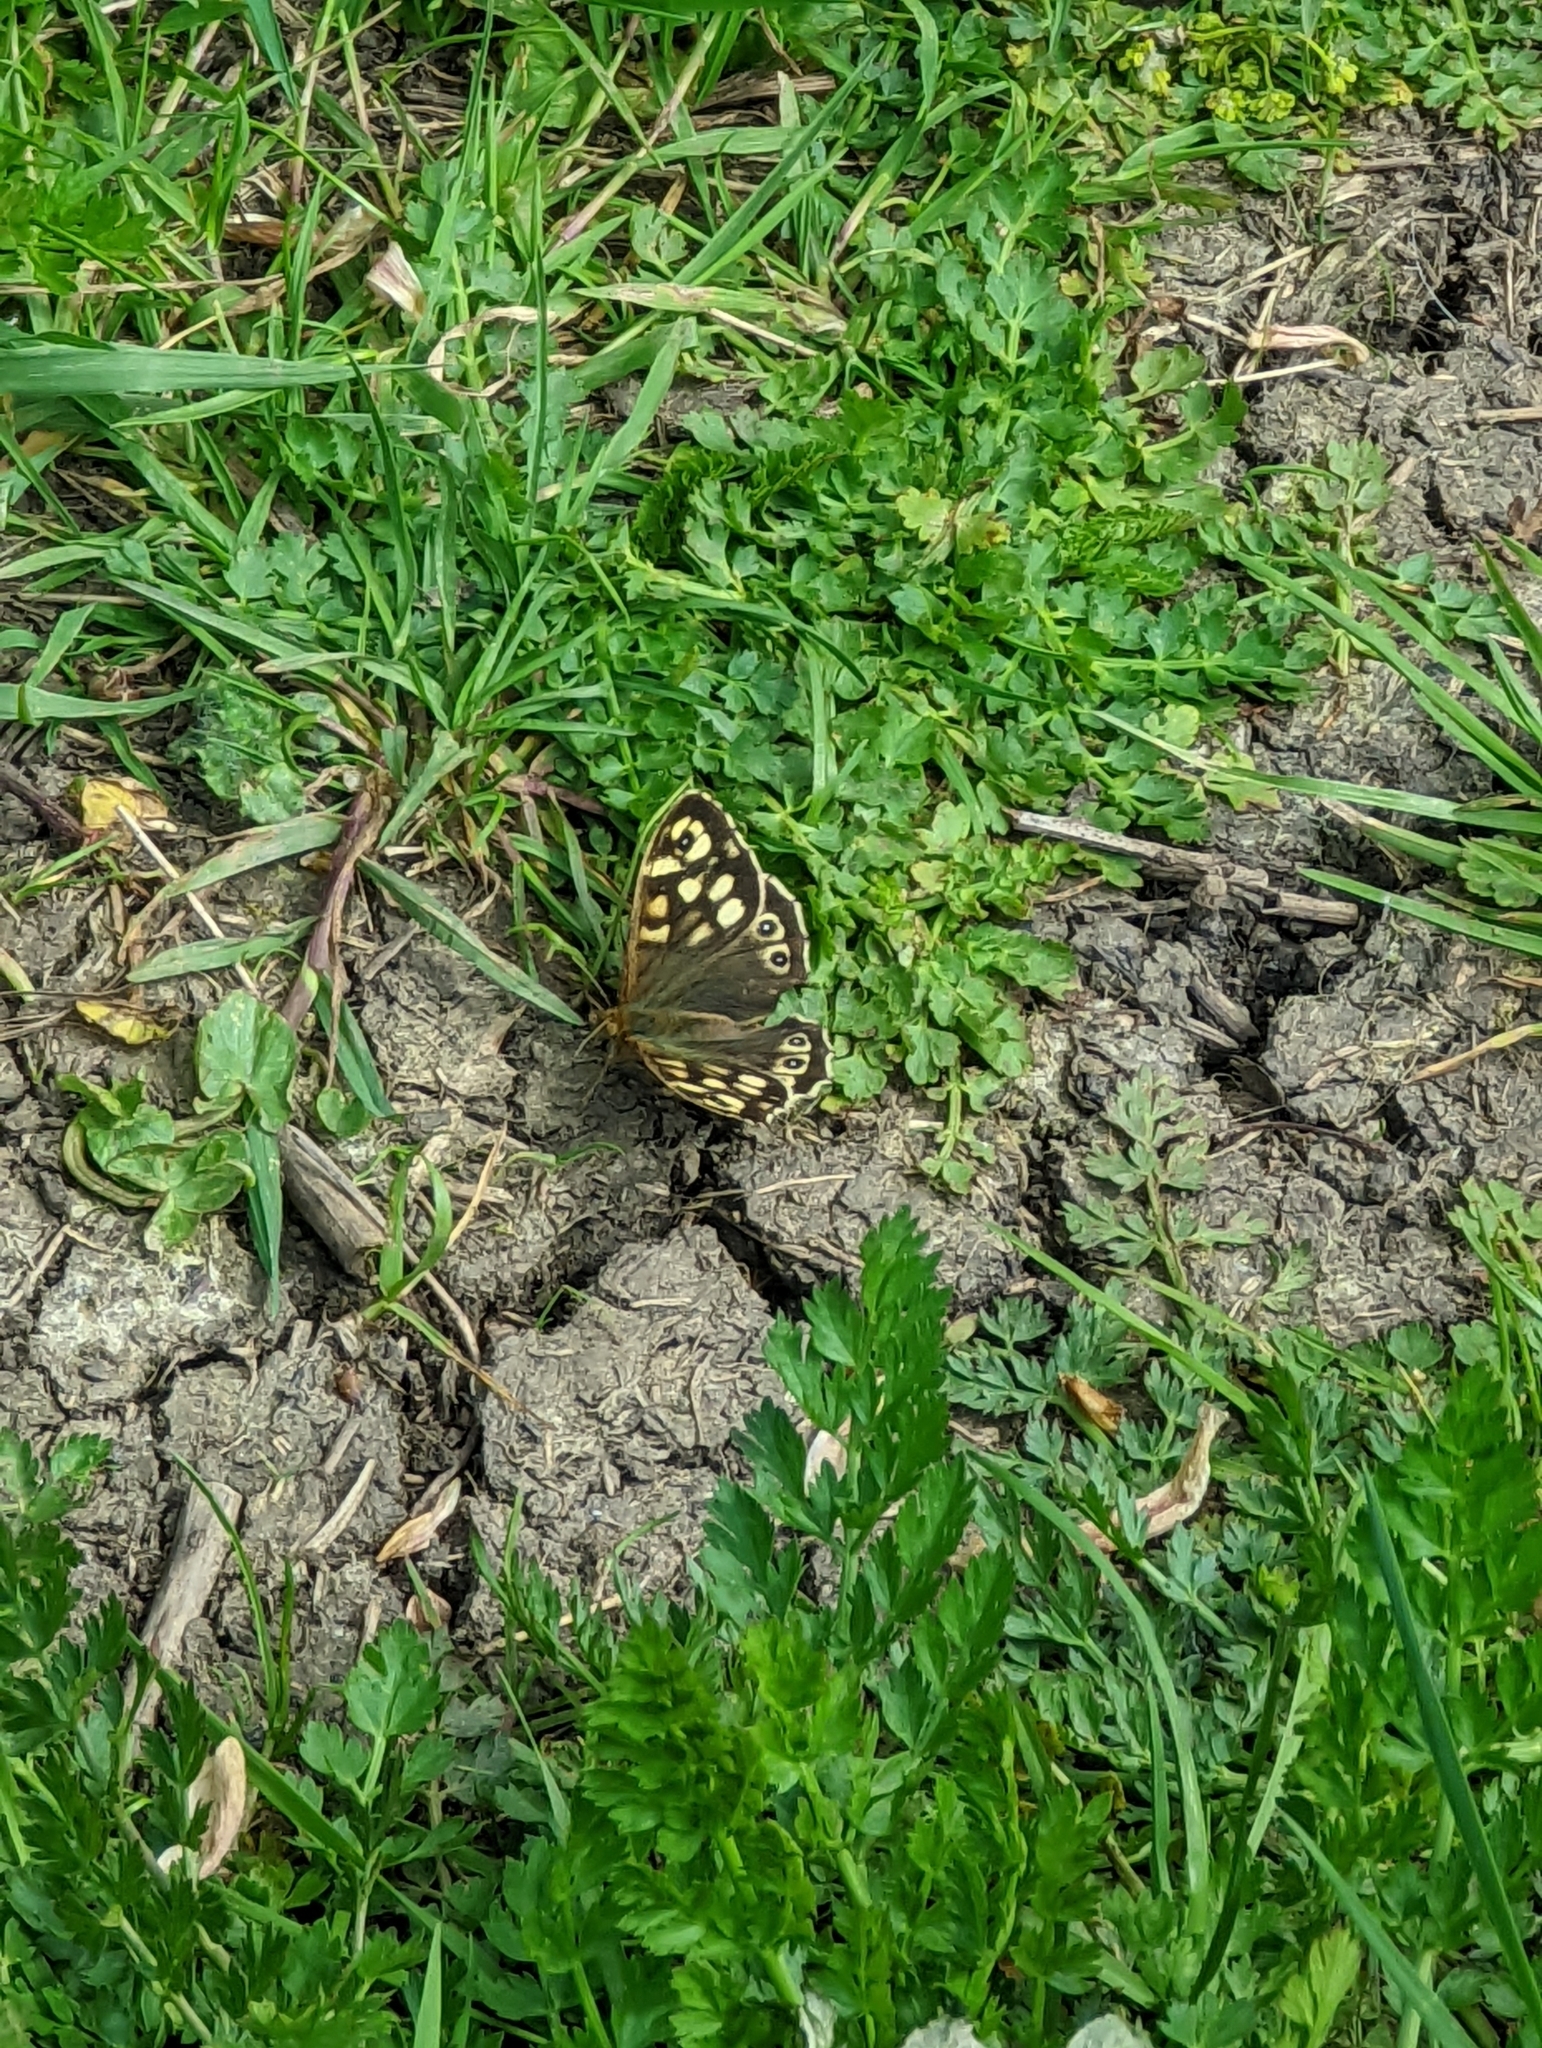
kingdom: Animalia
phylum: Arthropoda
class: Insecta
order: Lepidoptera
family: Nymphalidae
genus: Pararge
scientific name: Pararge aegeria
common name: Speckled wood
